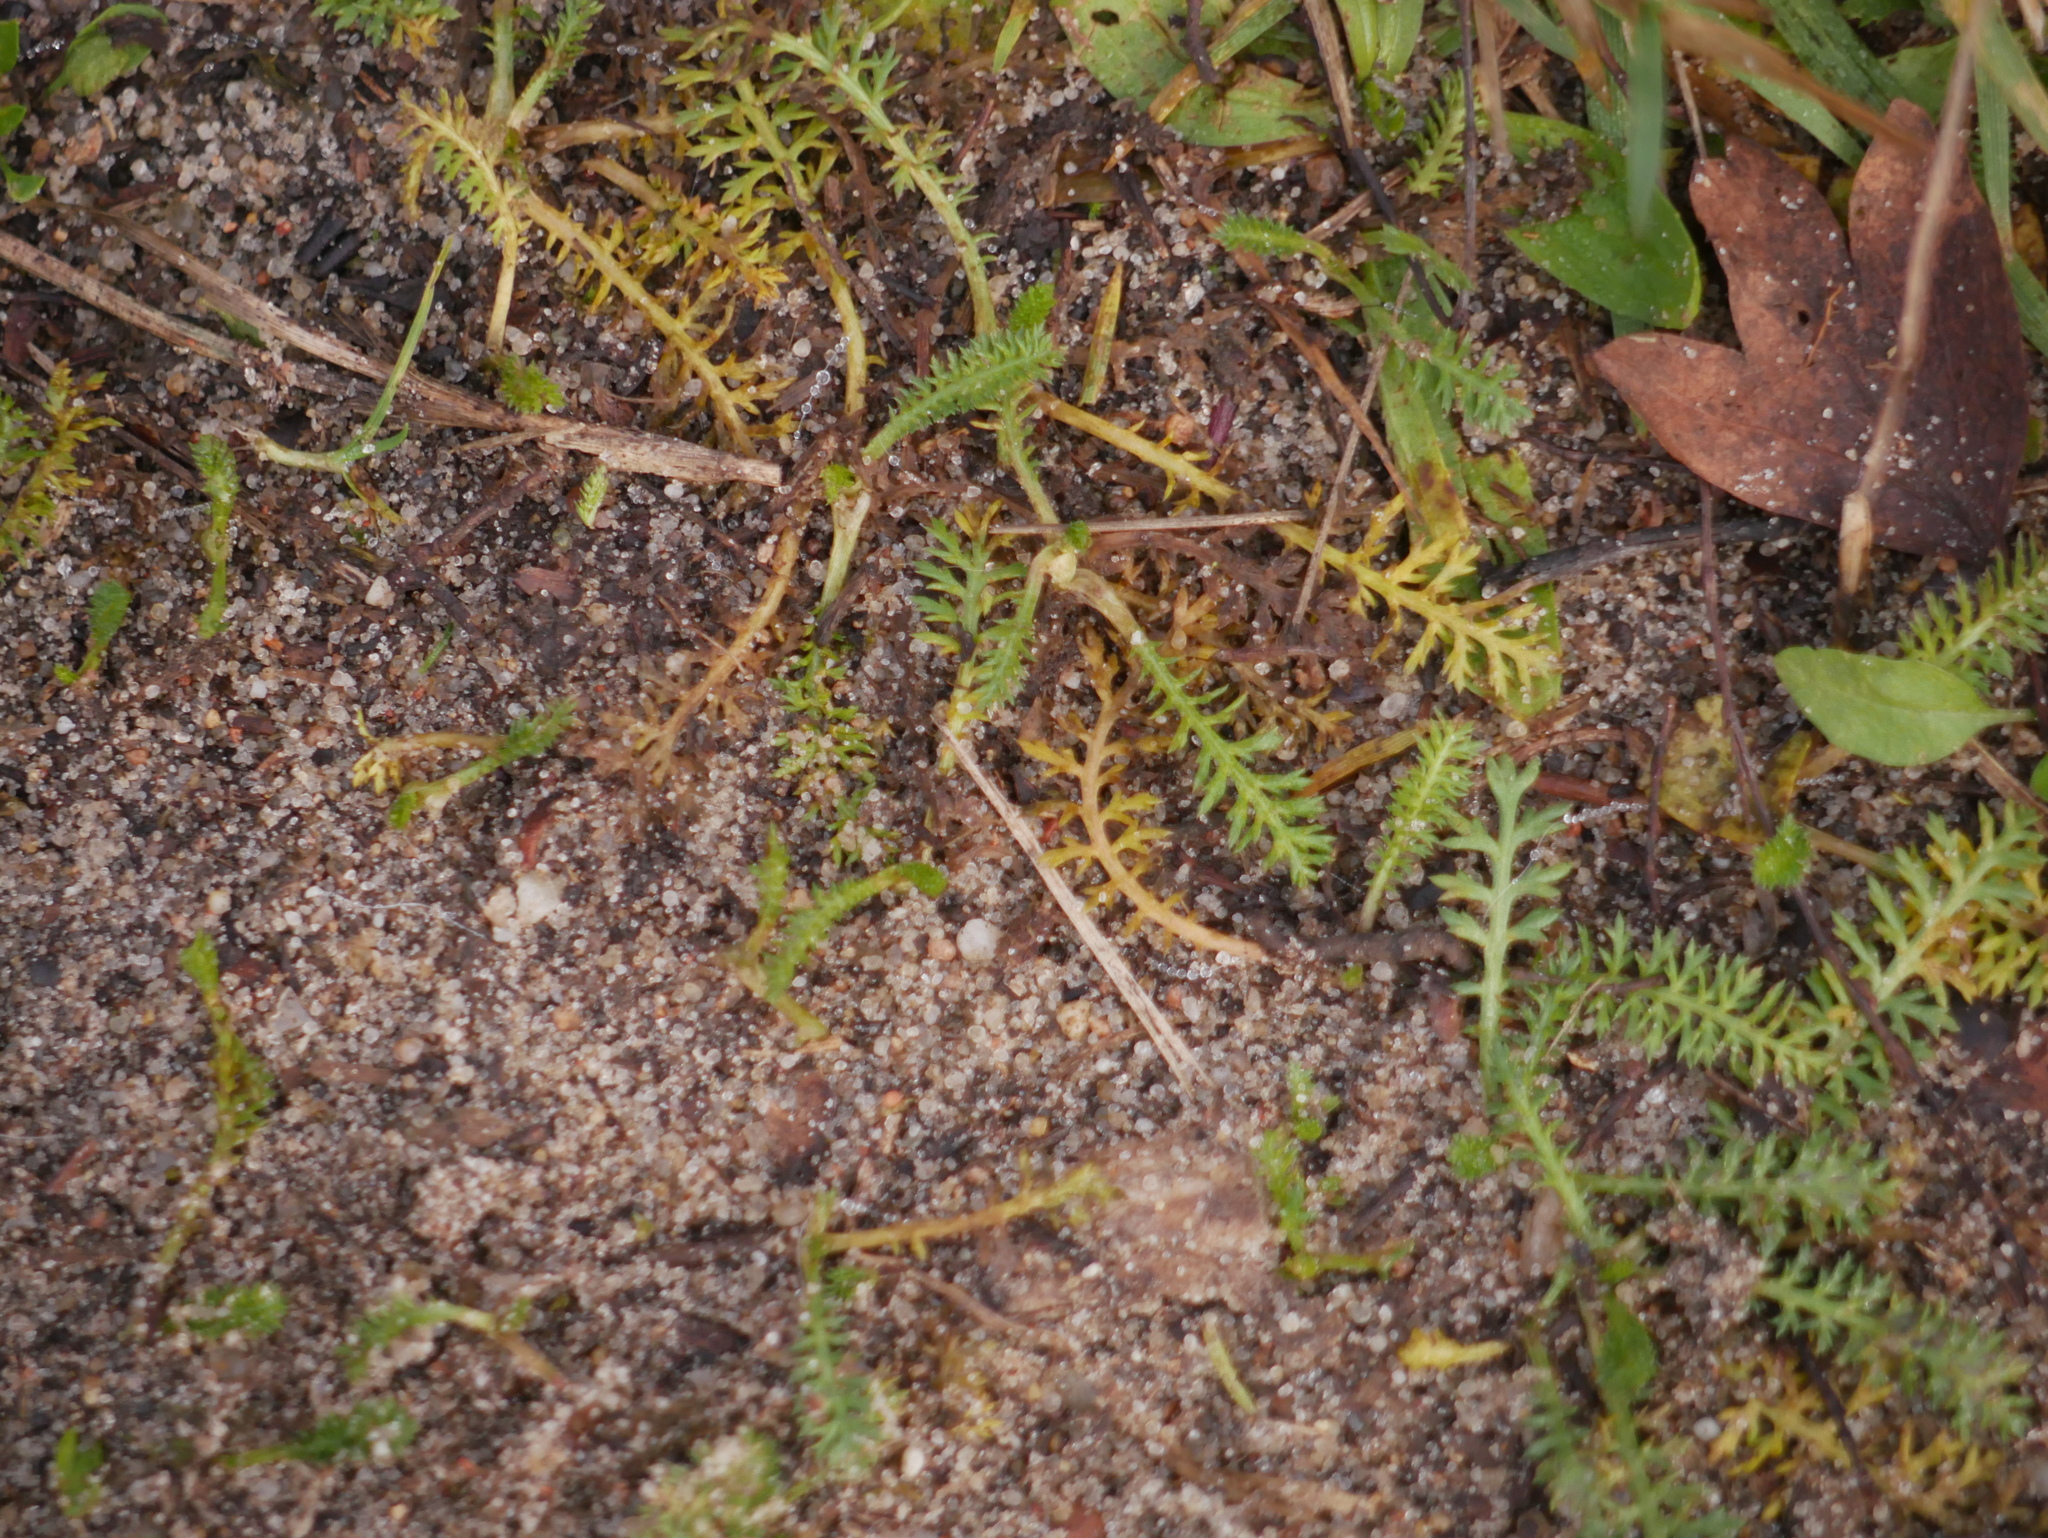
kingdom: Plantae
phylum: Tracheophyta
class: Magnoliopsida
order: Asterales
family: Asteraceae
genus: Achillea
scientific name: Achillea millefolium
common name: Yarrow
